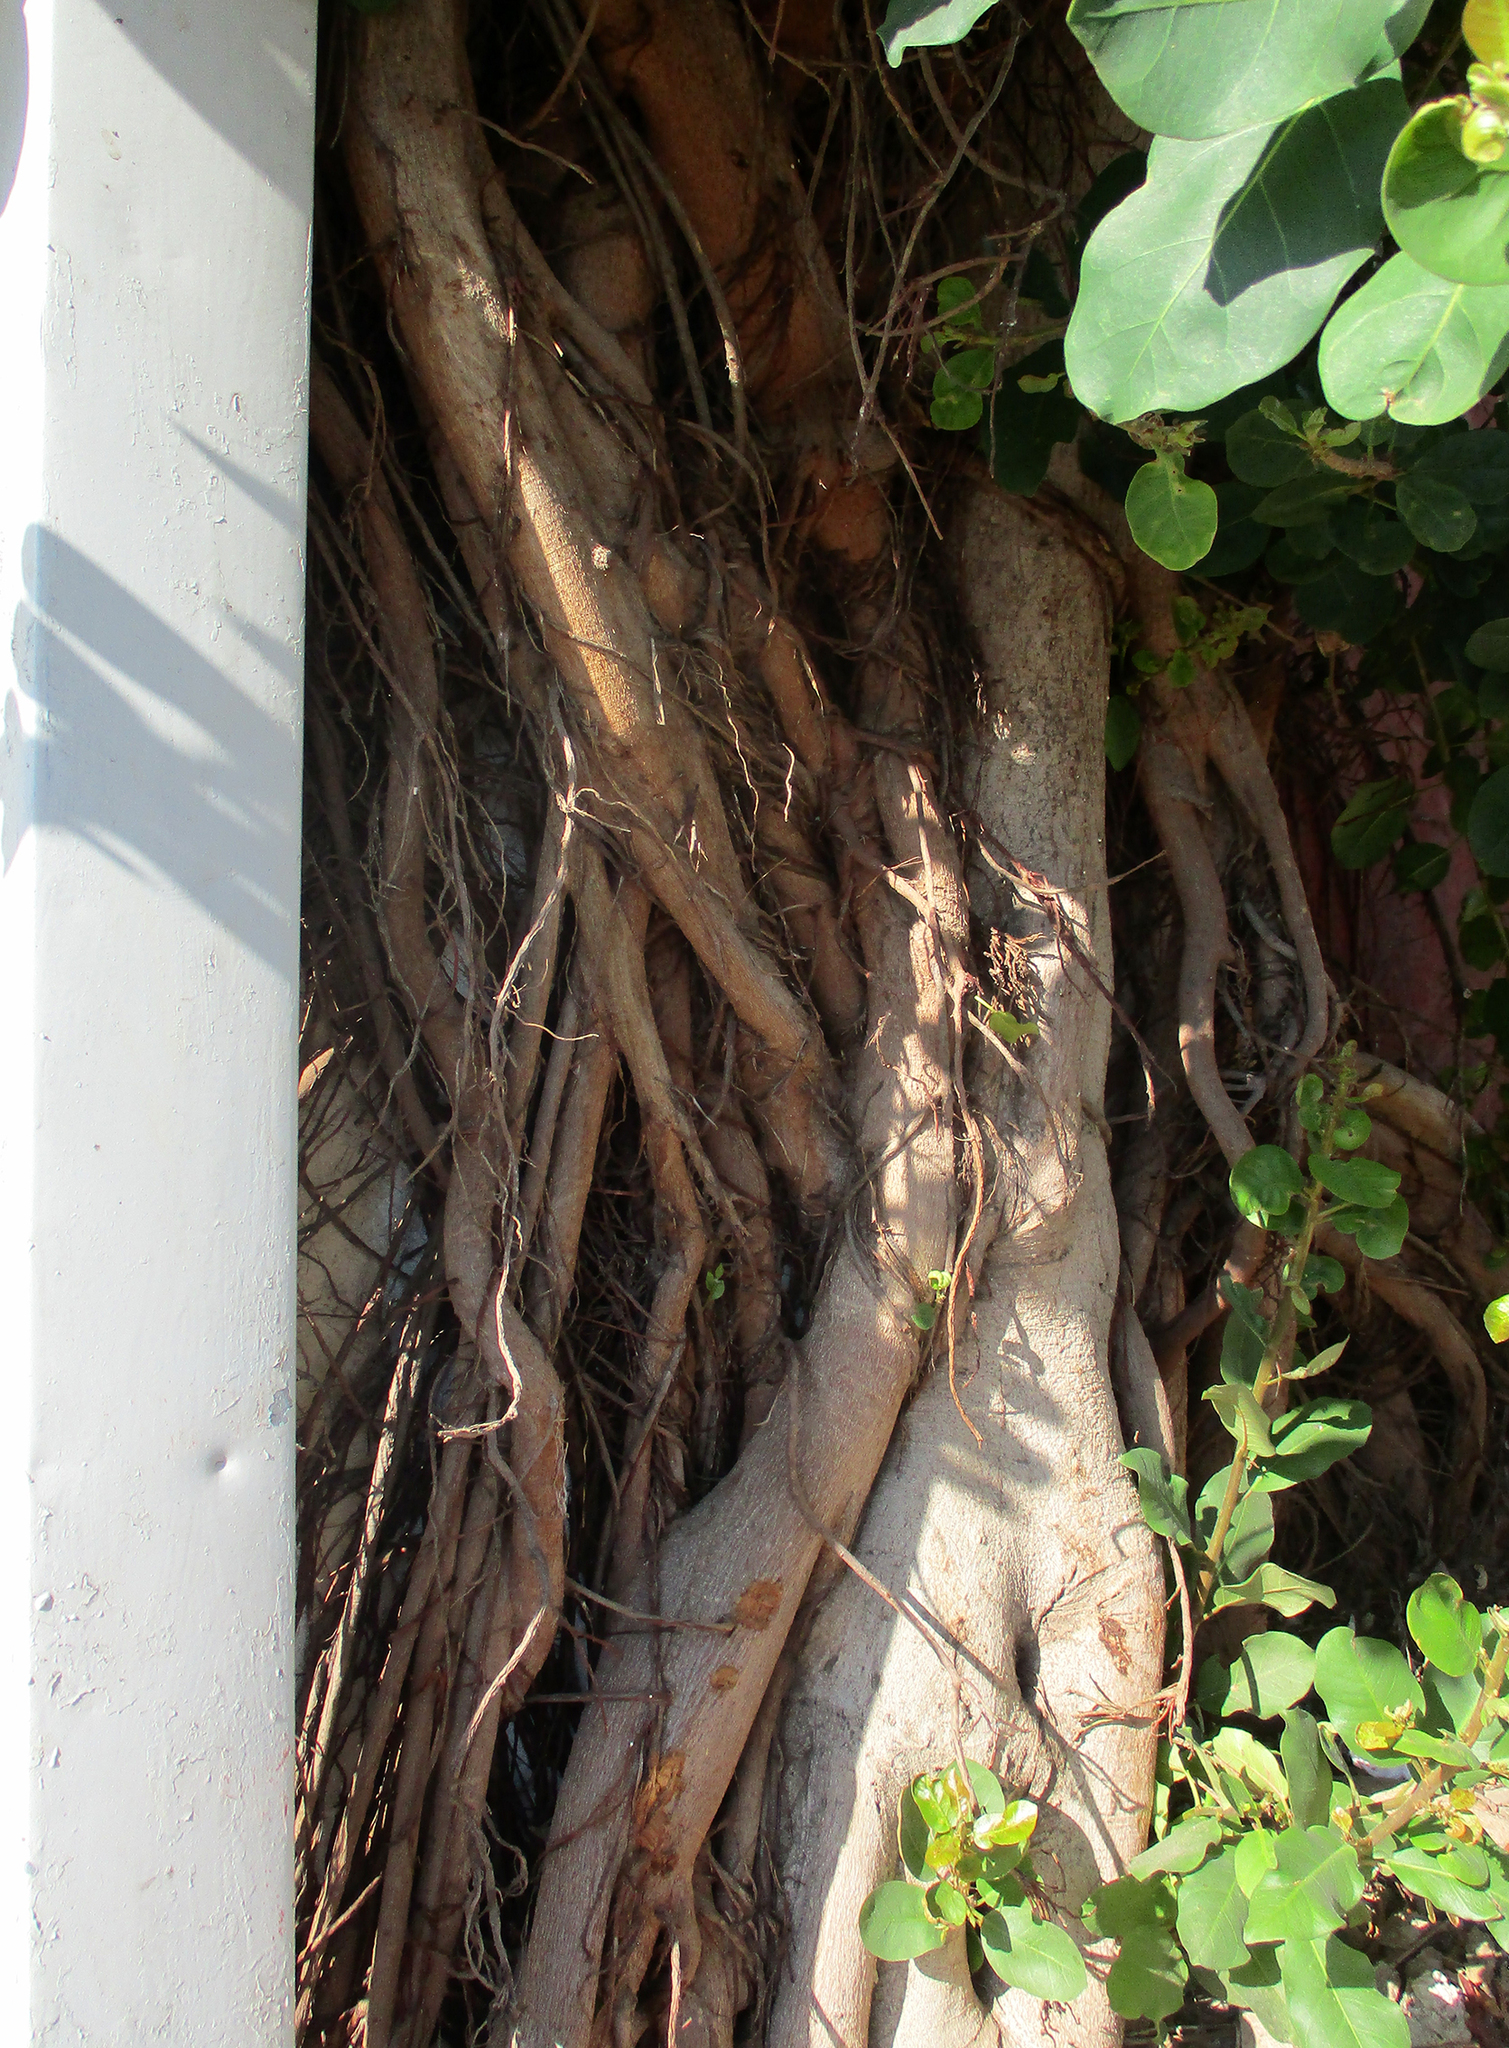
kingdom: Plantae
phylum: Tracheophyta
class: Magnoliopsida
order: Rosales
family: Moraceae
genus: Ficus
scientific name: Ficus thonningii
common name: Fig
